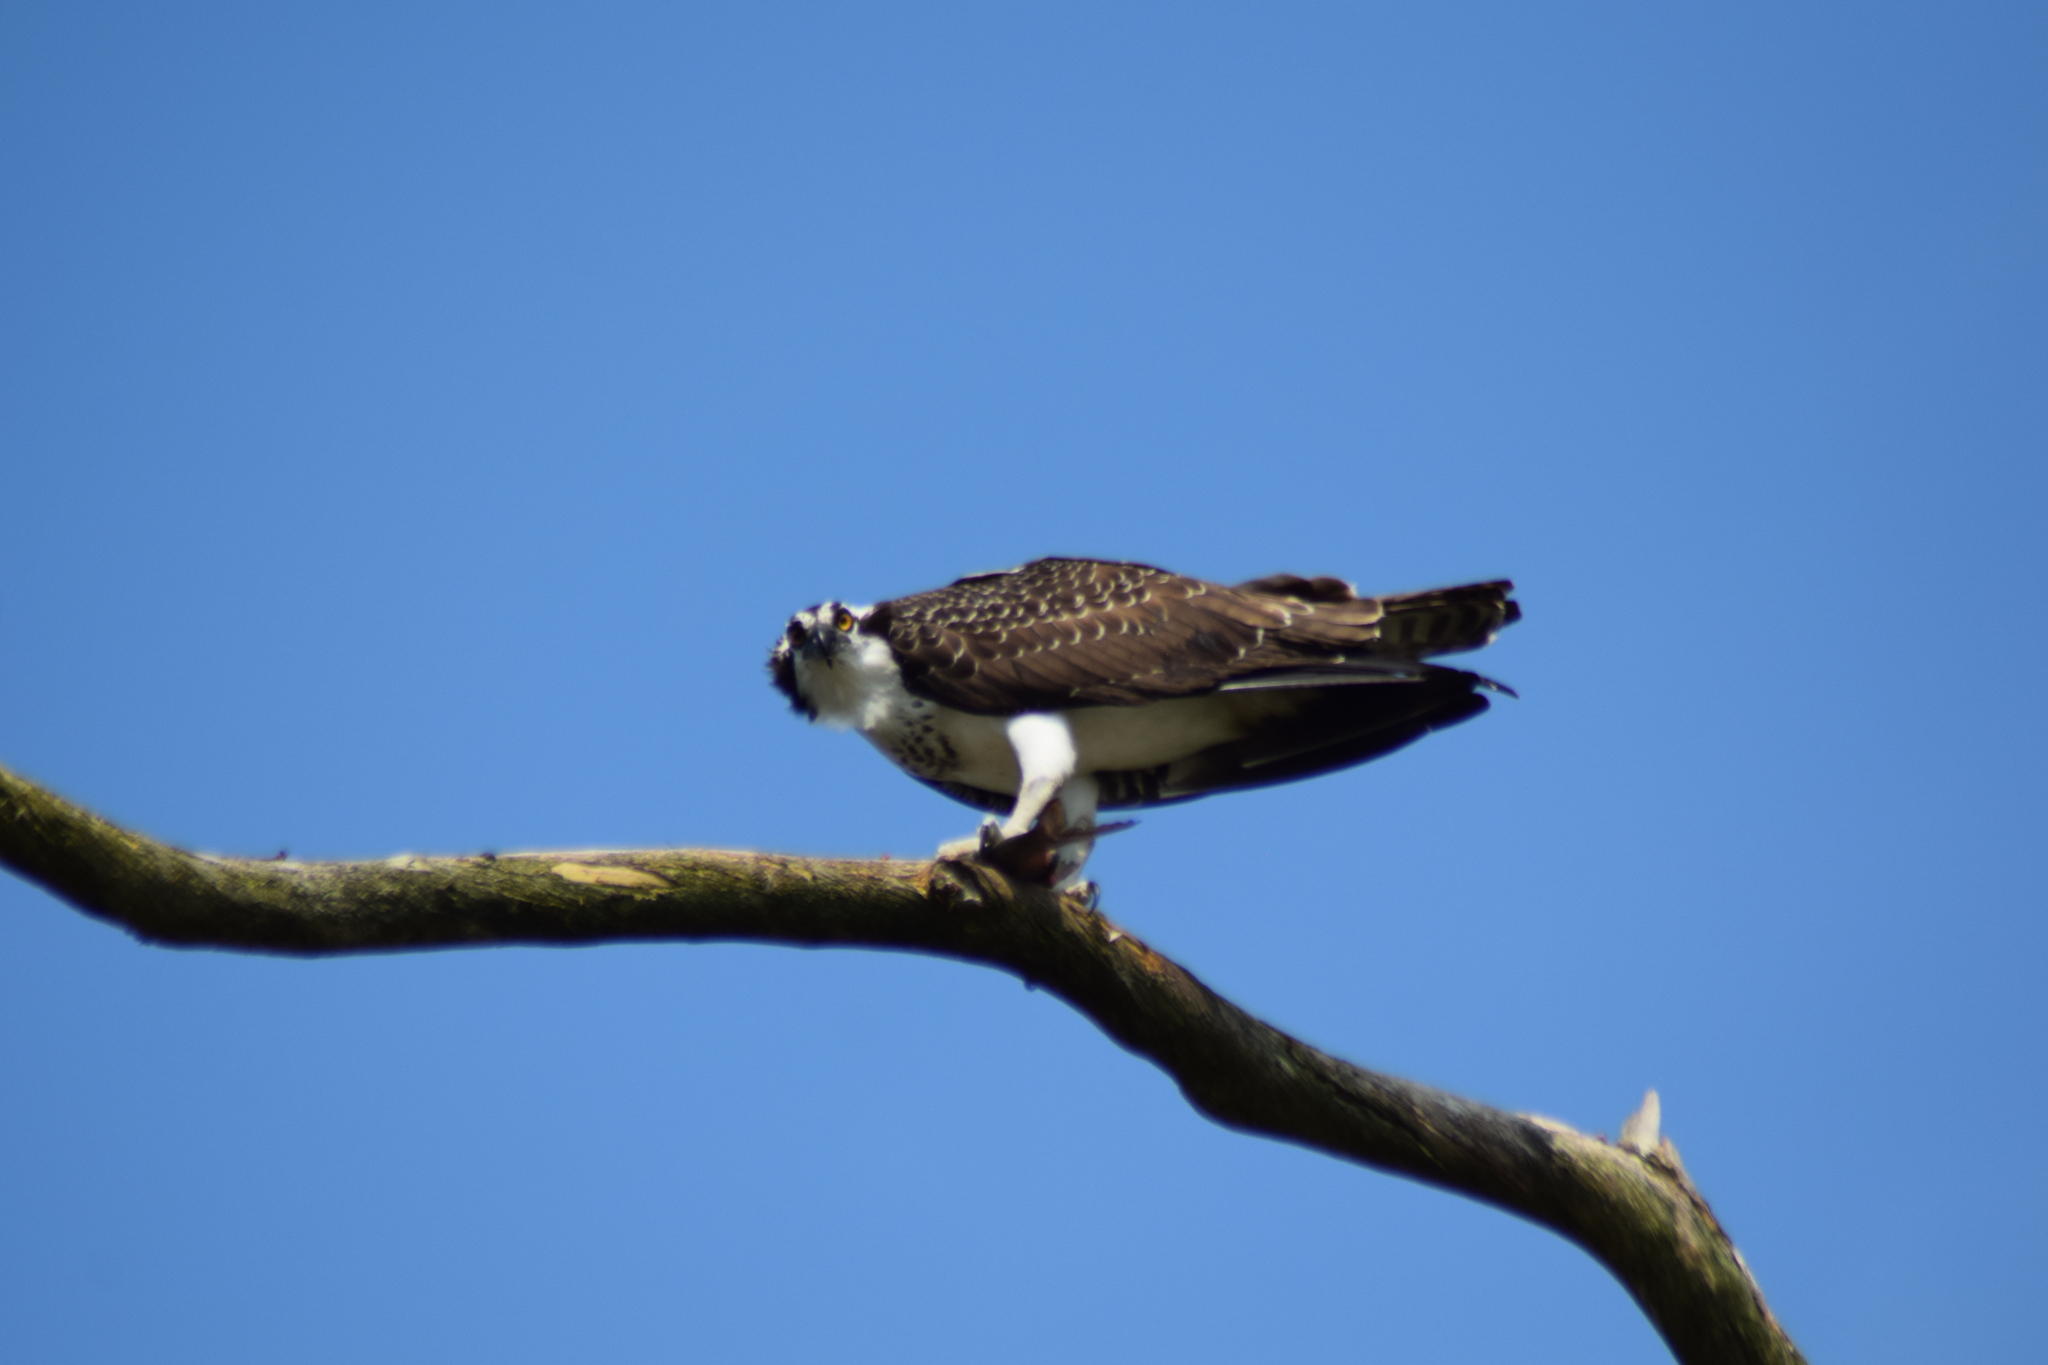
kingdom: Animalia
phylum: Chordata
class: Aves
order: Accipitriformes
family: Pandionidae
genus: Pandion
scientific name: Pandion haliaetus
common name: Osprey
